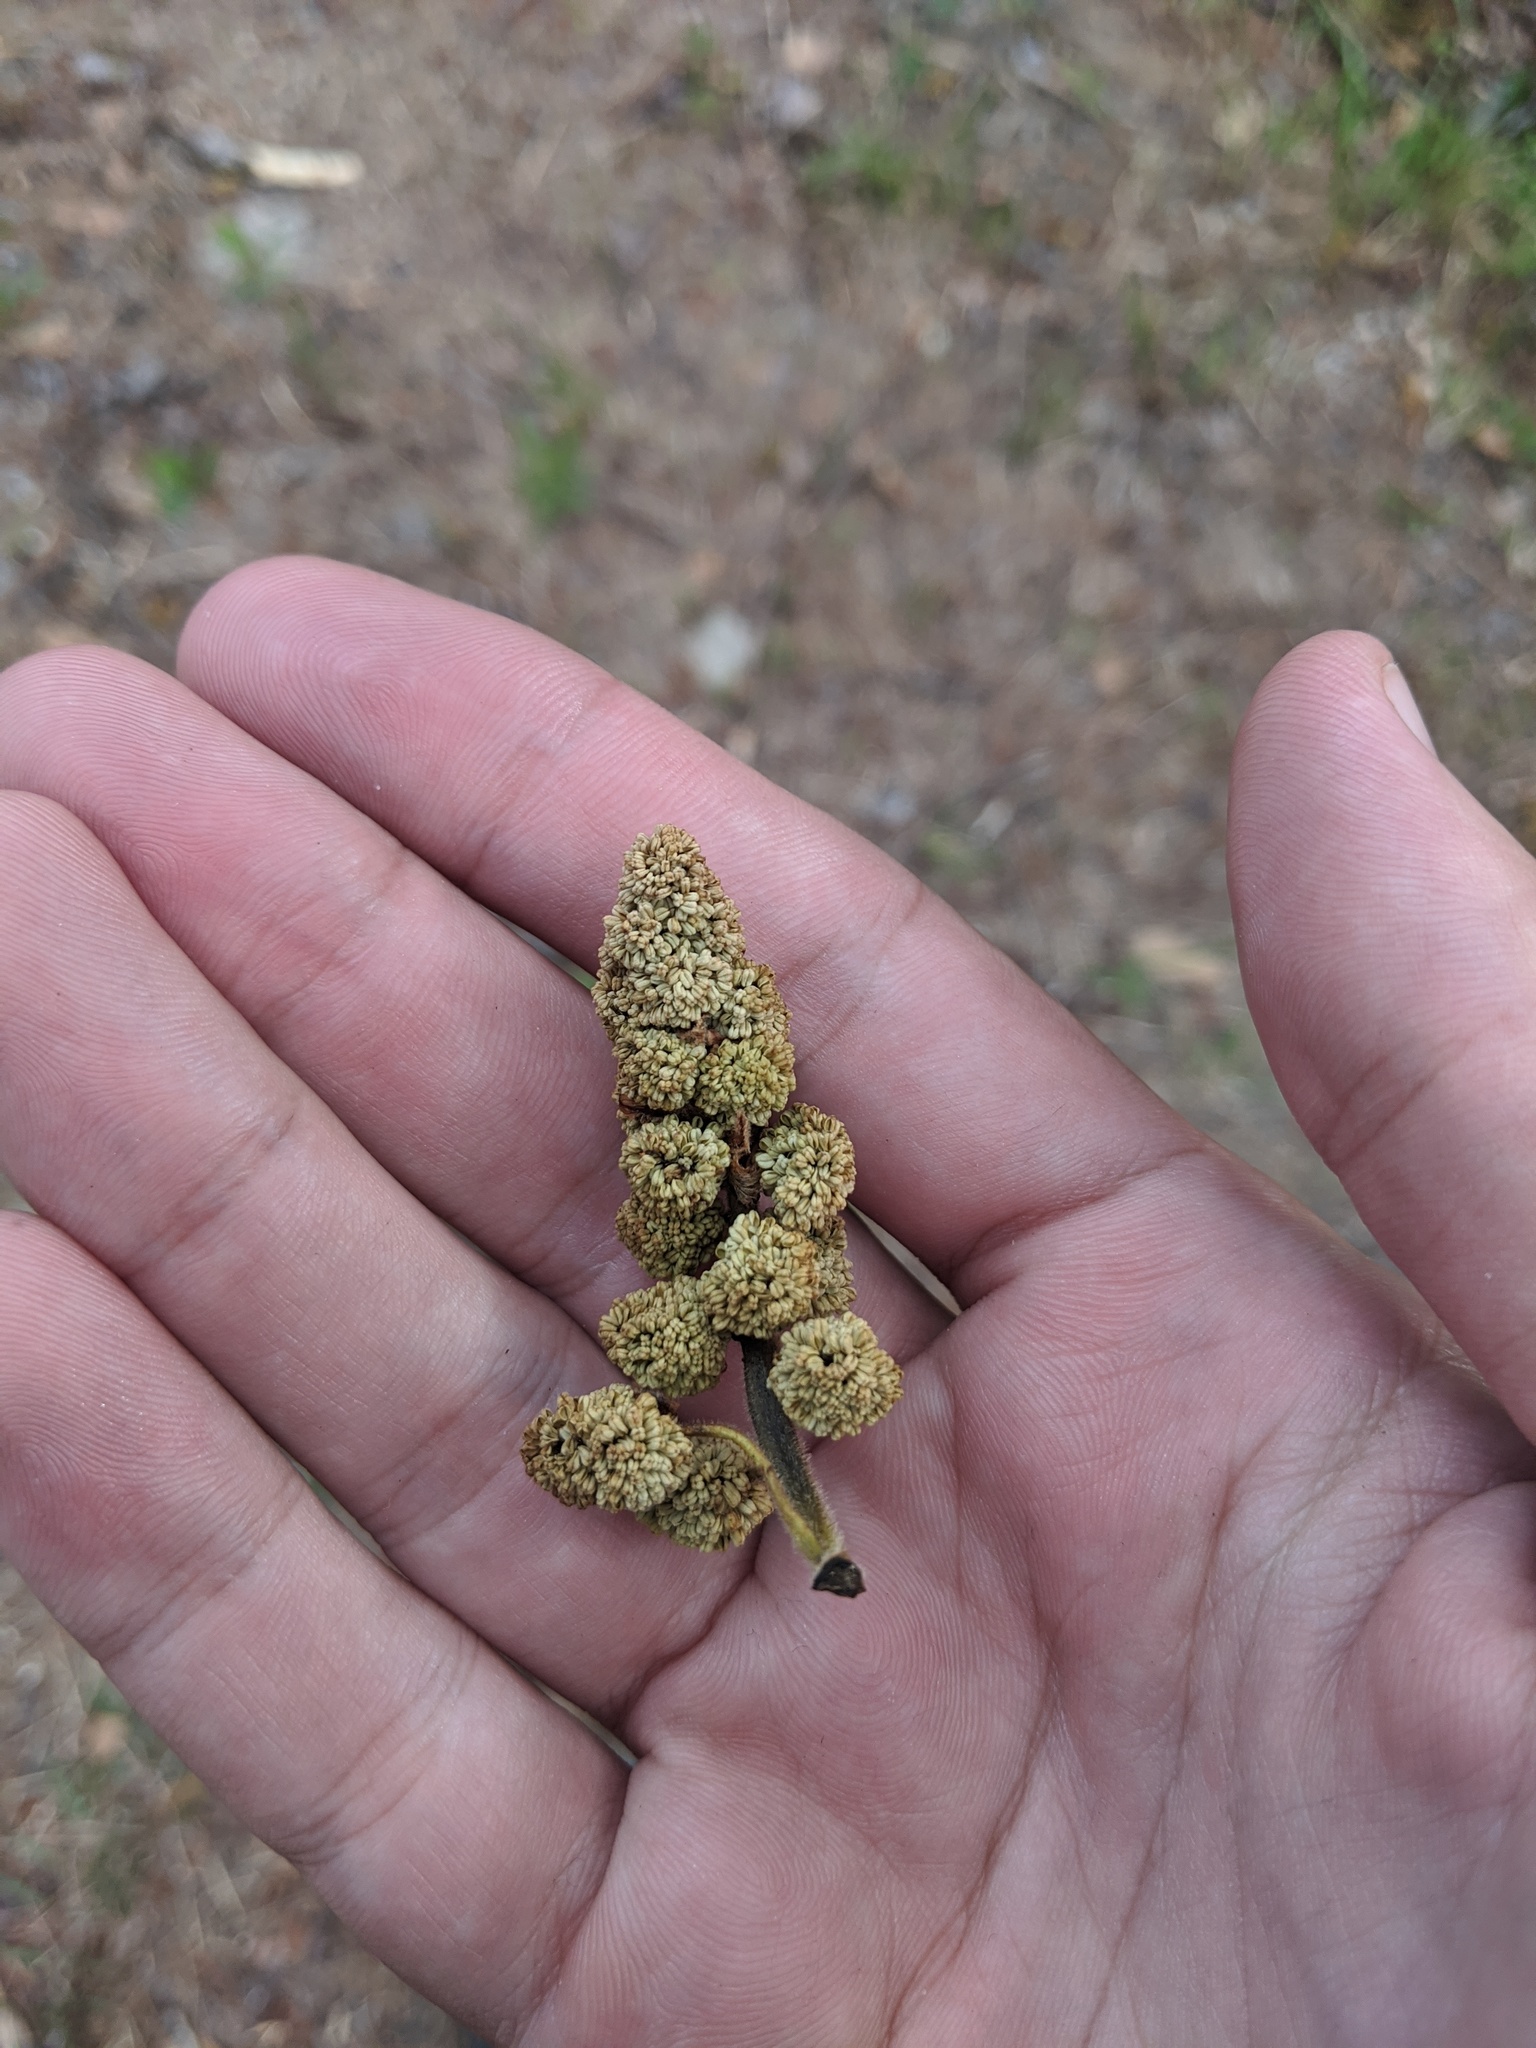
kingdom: Plantae
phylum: Tracheophyta
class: Magnoliopsida
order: Saxifragales
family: Altingiaceae
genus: Liquidambar
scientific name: Liquidambar styraciflua
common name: Sweet gum
